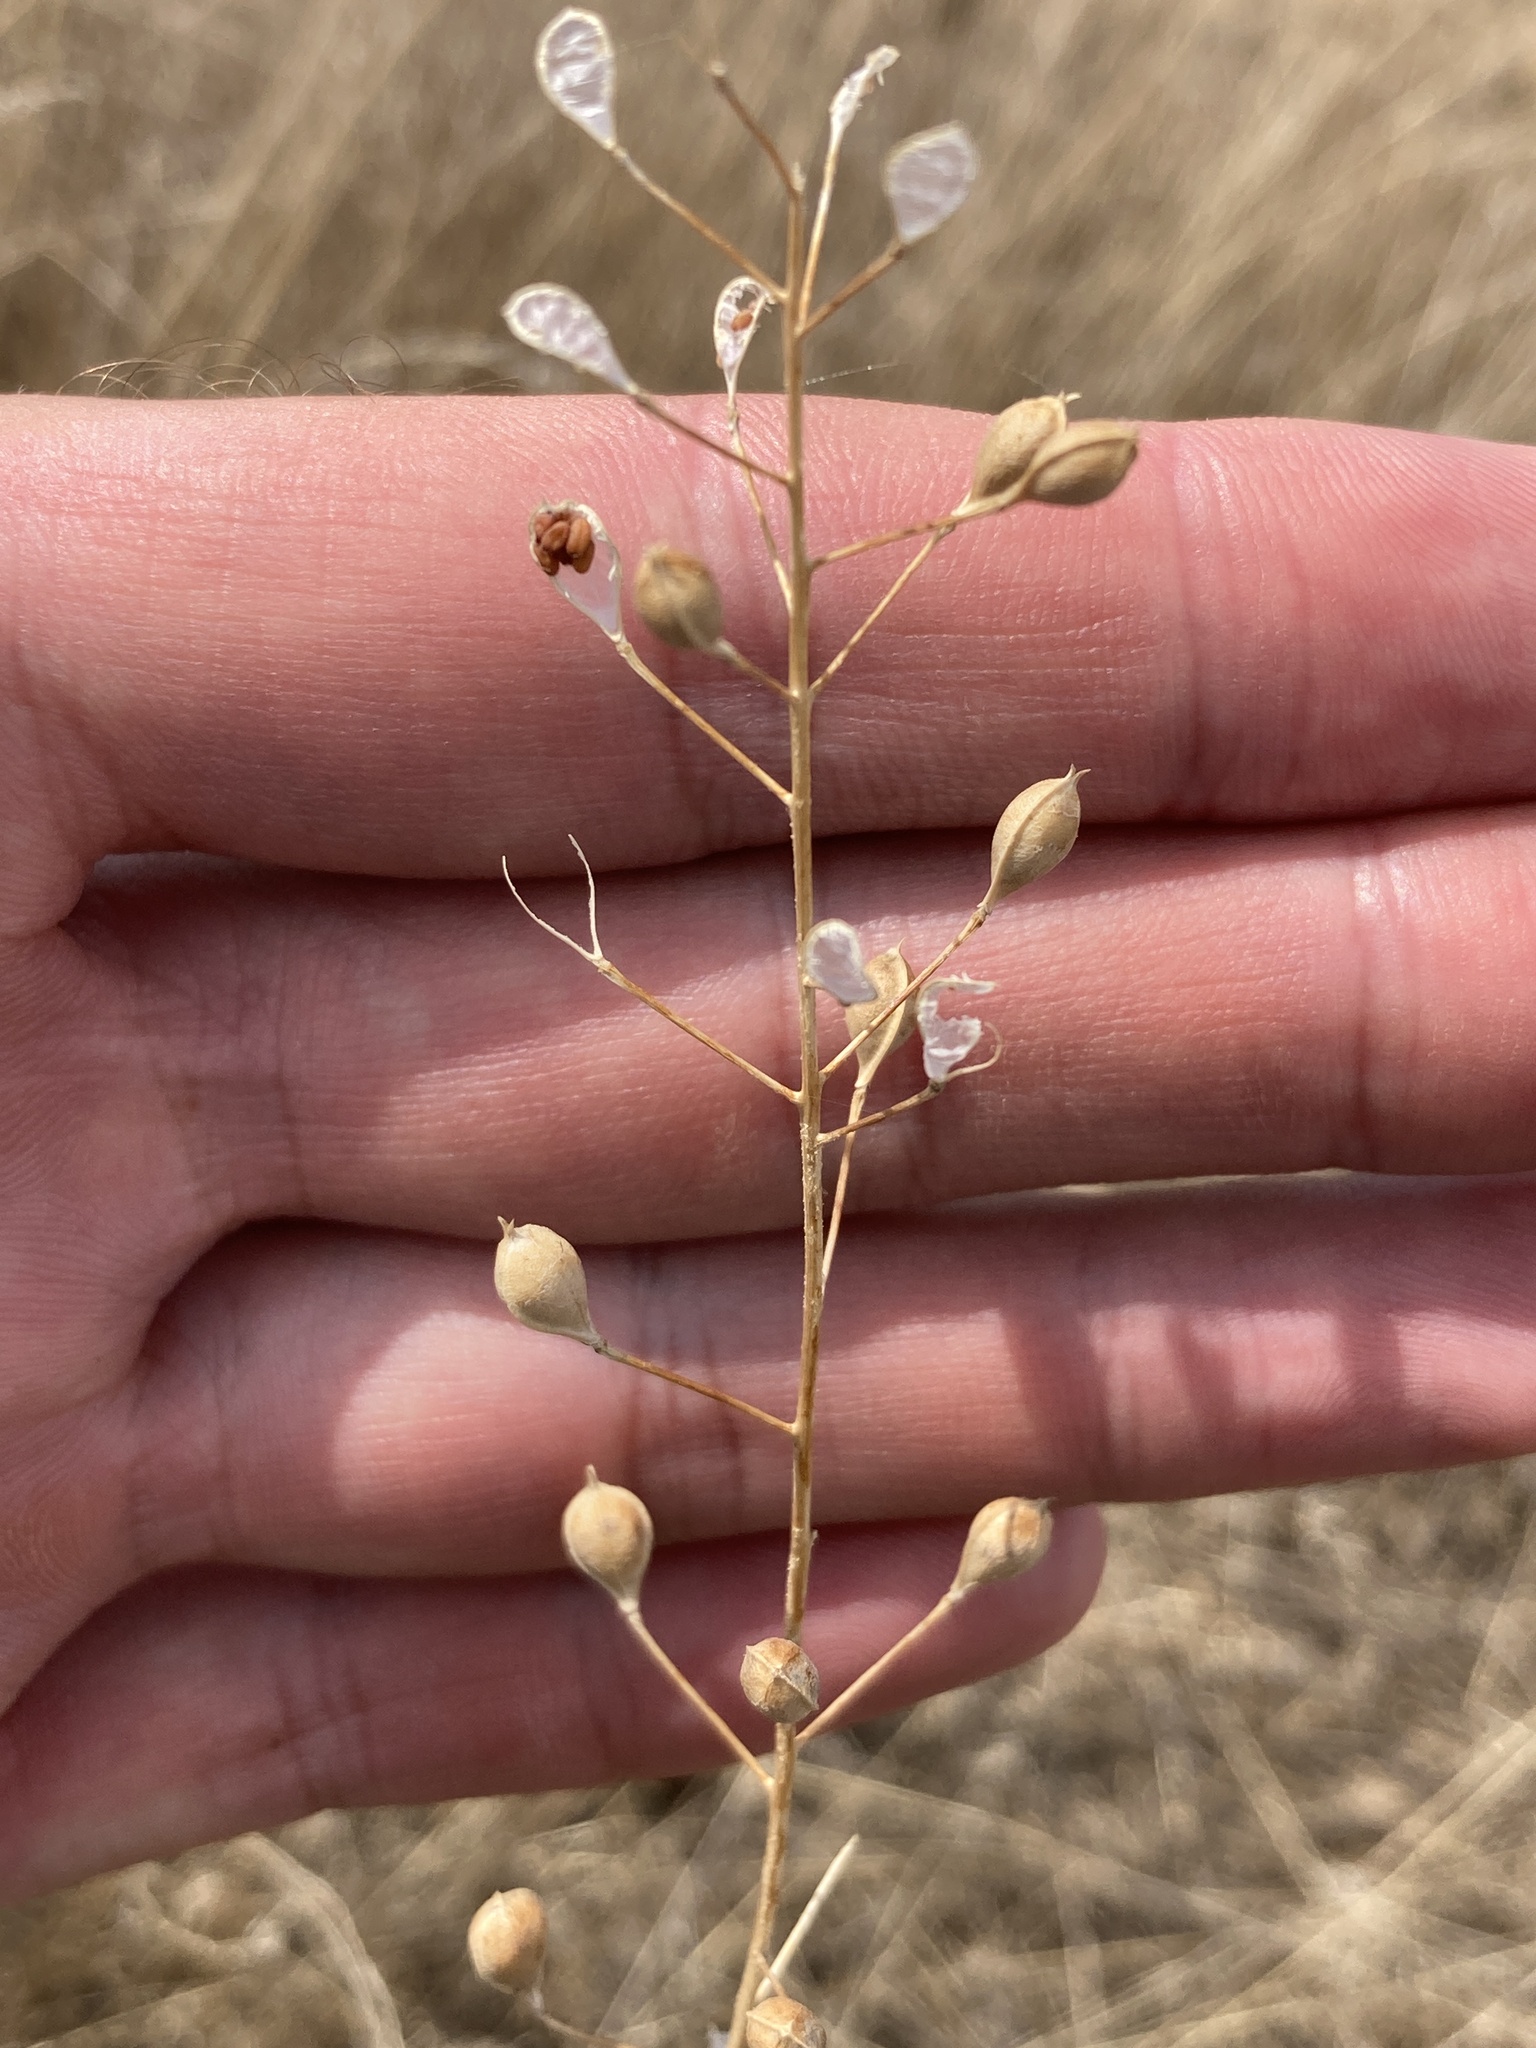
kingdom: Plantae
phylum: Tracheophyta
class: Magnoliopsida
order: Brassicales
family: Brassicaceae
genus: Camelina
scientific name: Camelina microcarpa
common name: Lesser gold-of-pleasure
